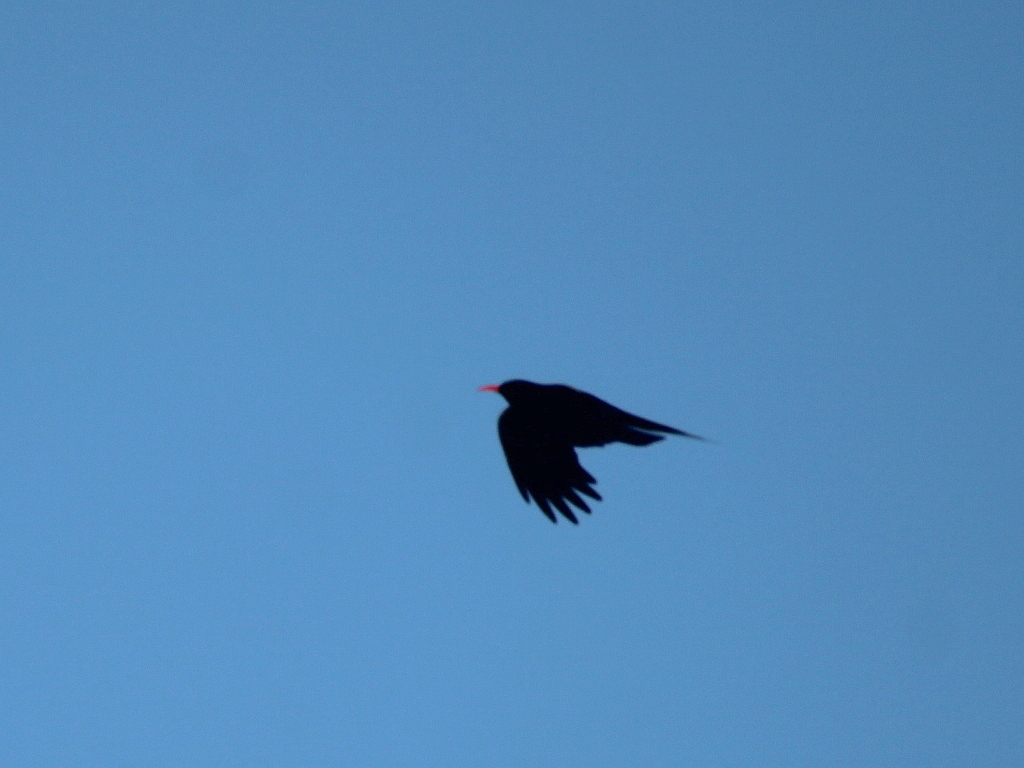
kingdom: Animalia
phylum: Chordata
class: Aves
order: Passeriformes
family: Corvidae
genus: Pyrrhocorax
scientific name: Pyrrhocorax pyrrhocorax
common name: Red-billed chough
